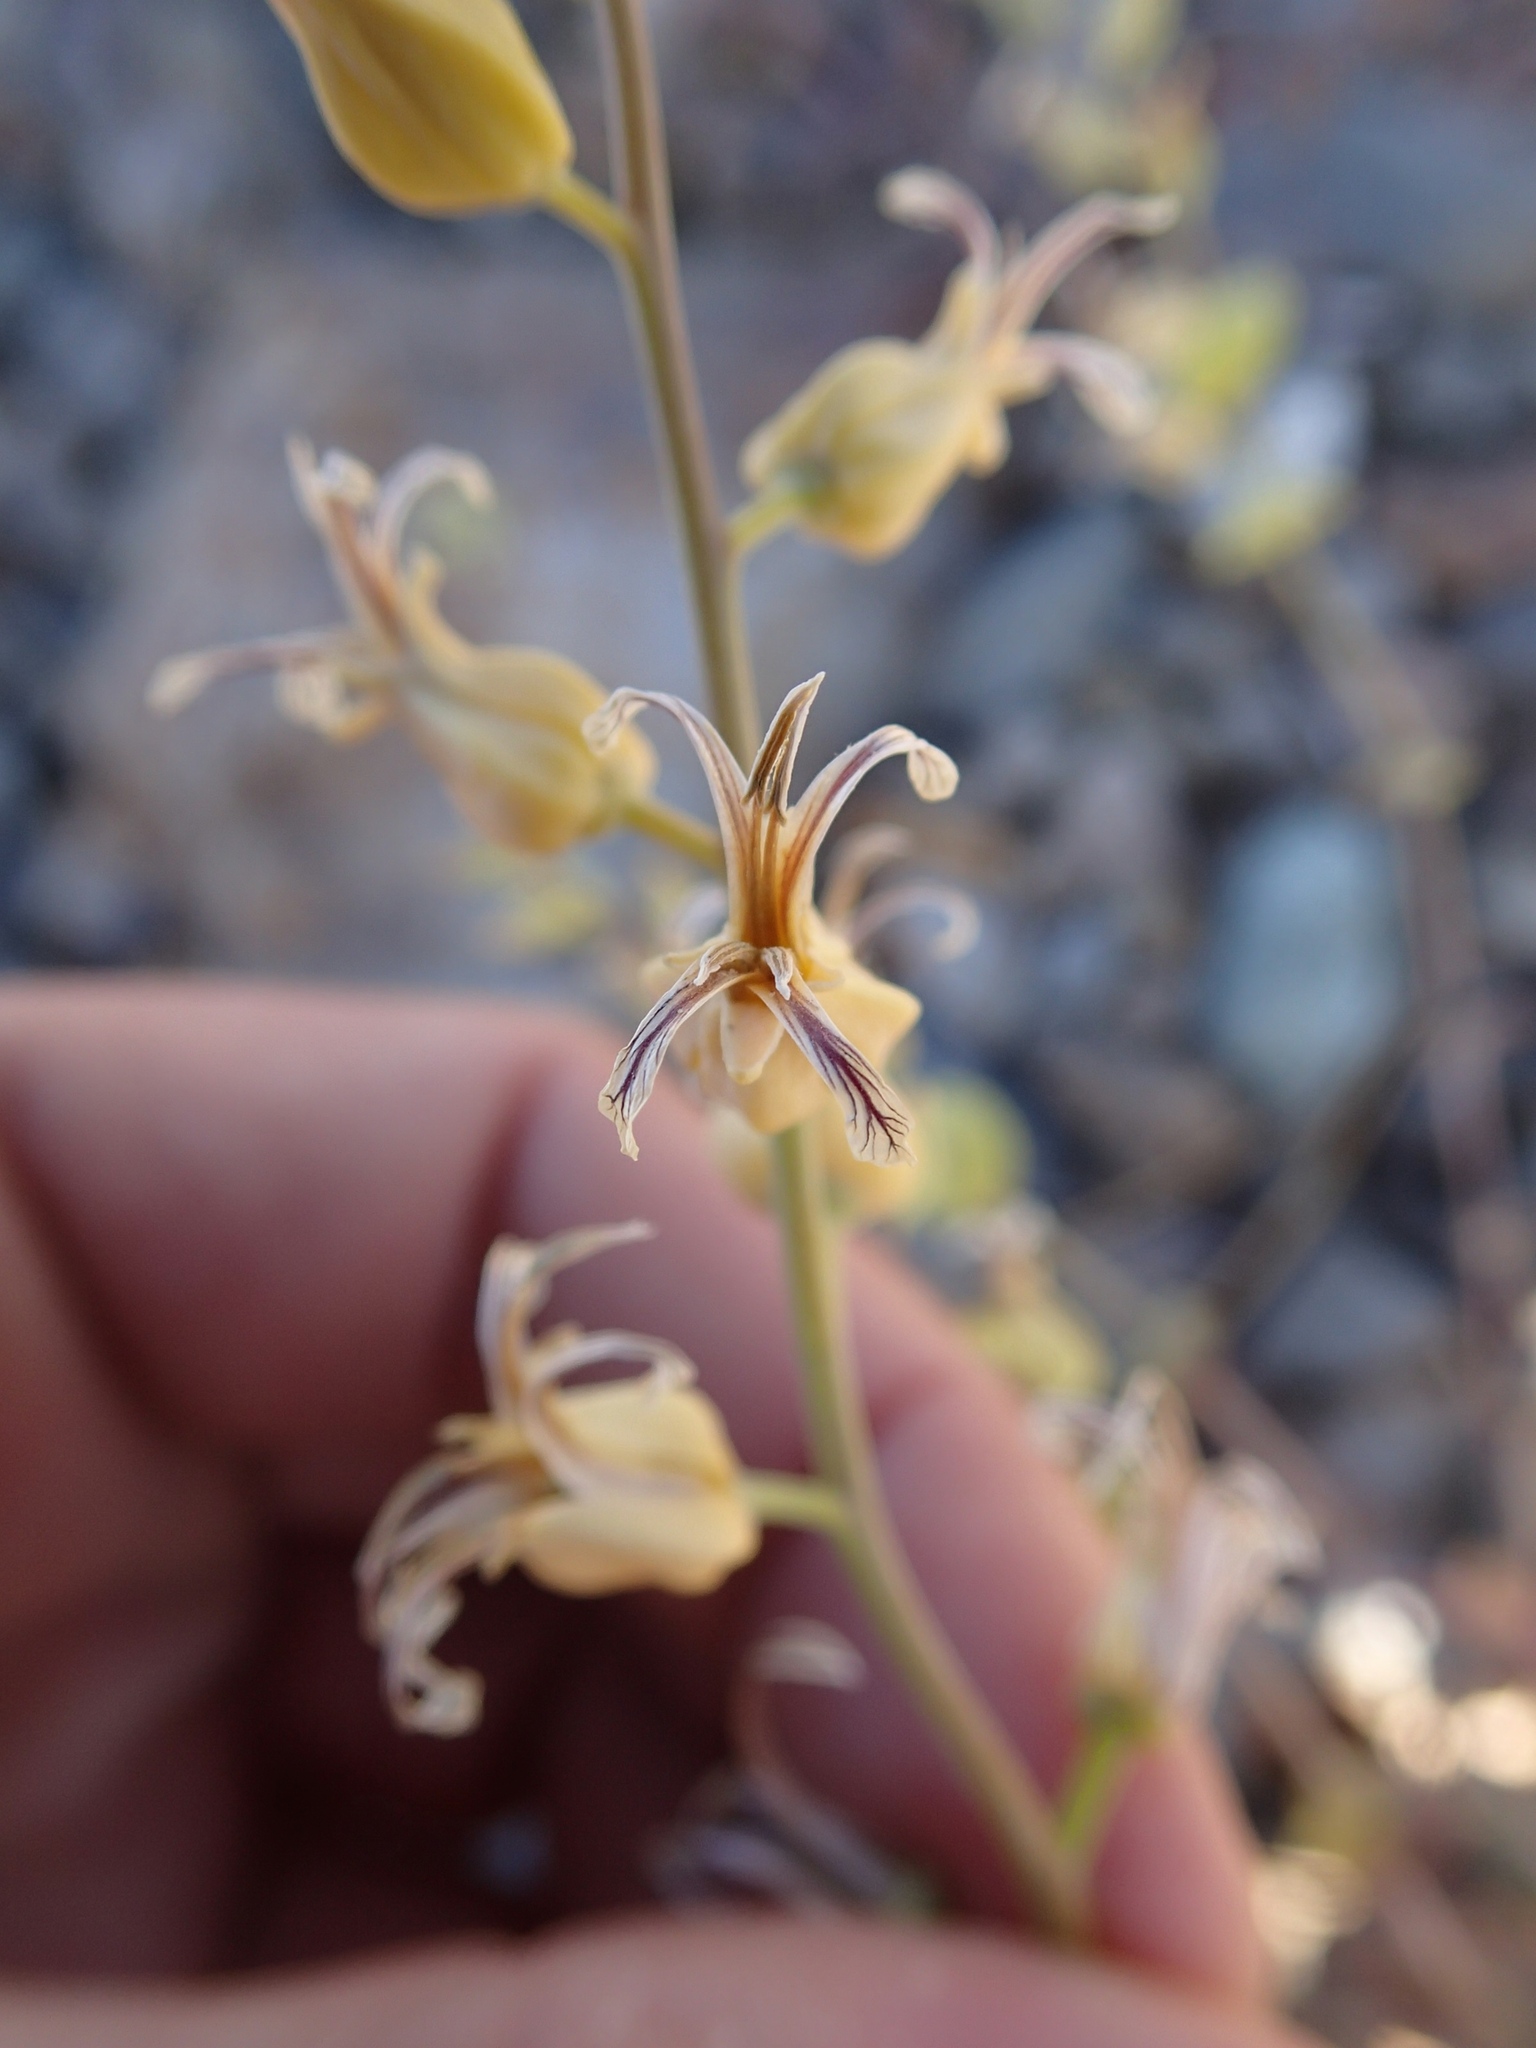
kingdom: Plantae
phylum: Tracheophyta
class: Magnoliopsida
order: Brassicales
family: Brassicaceae
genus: Streptanthus
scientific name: Streptanthus tortuosus
